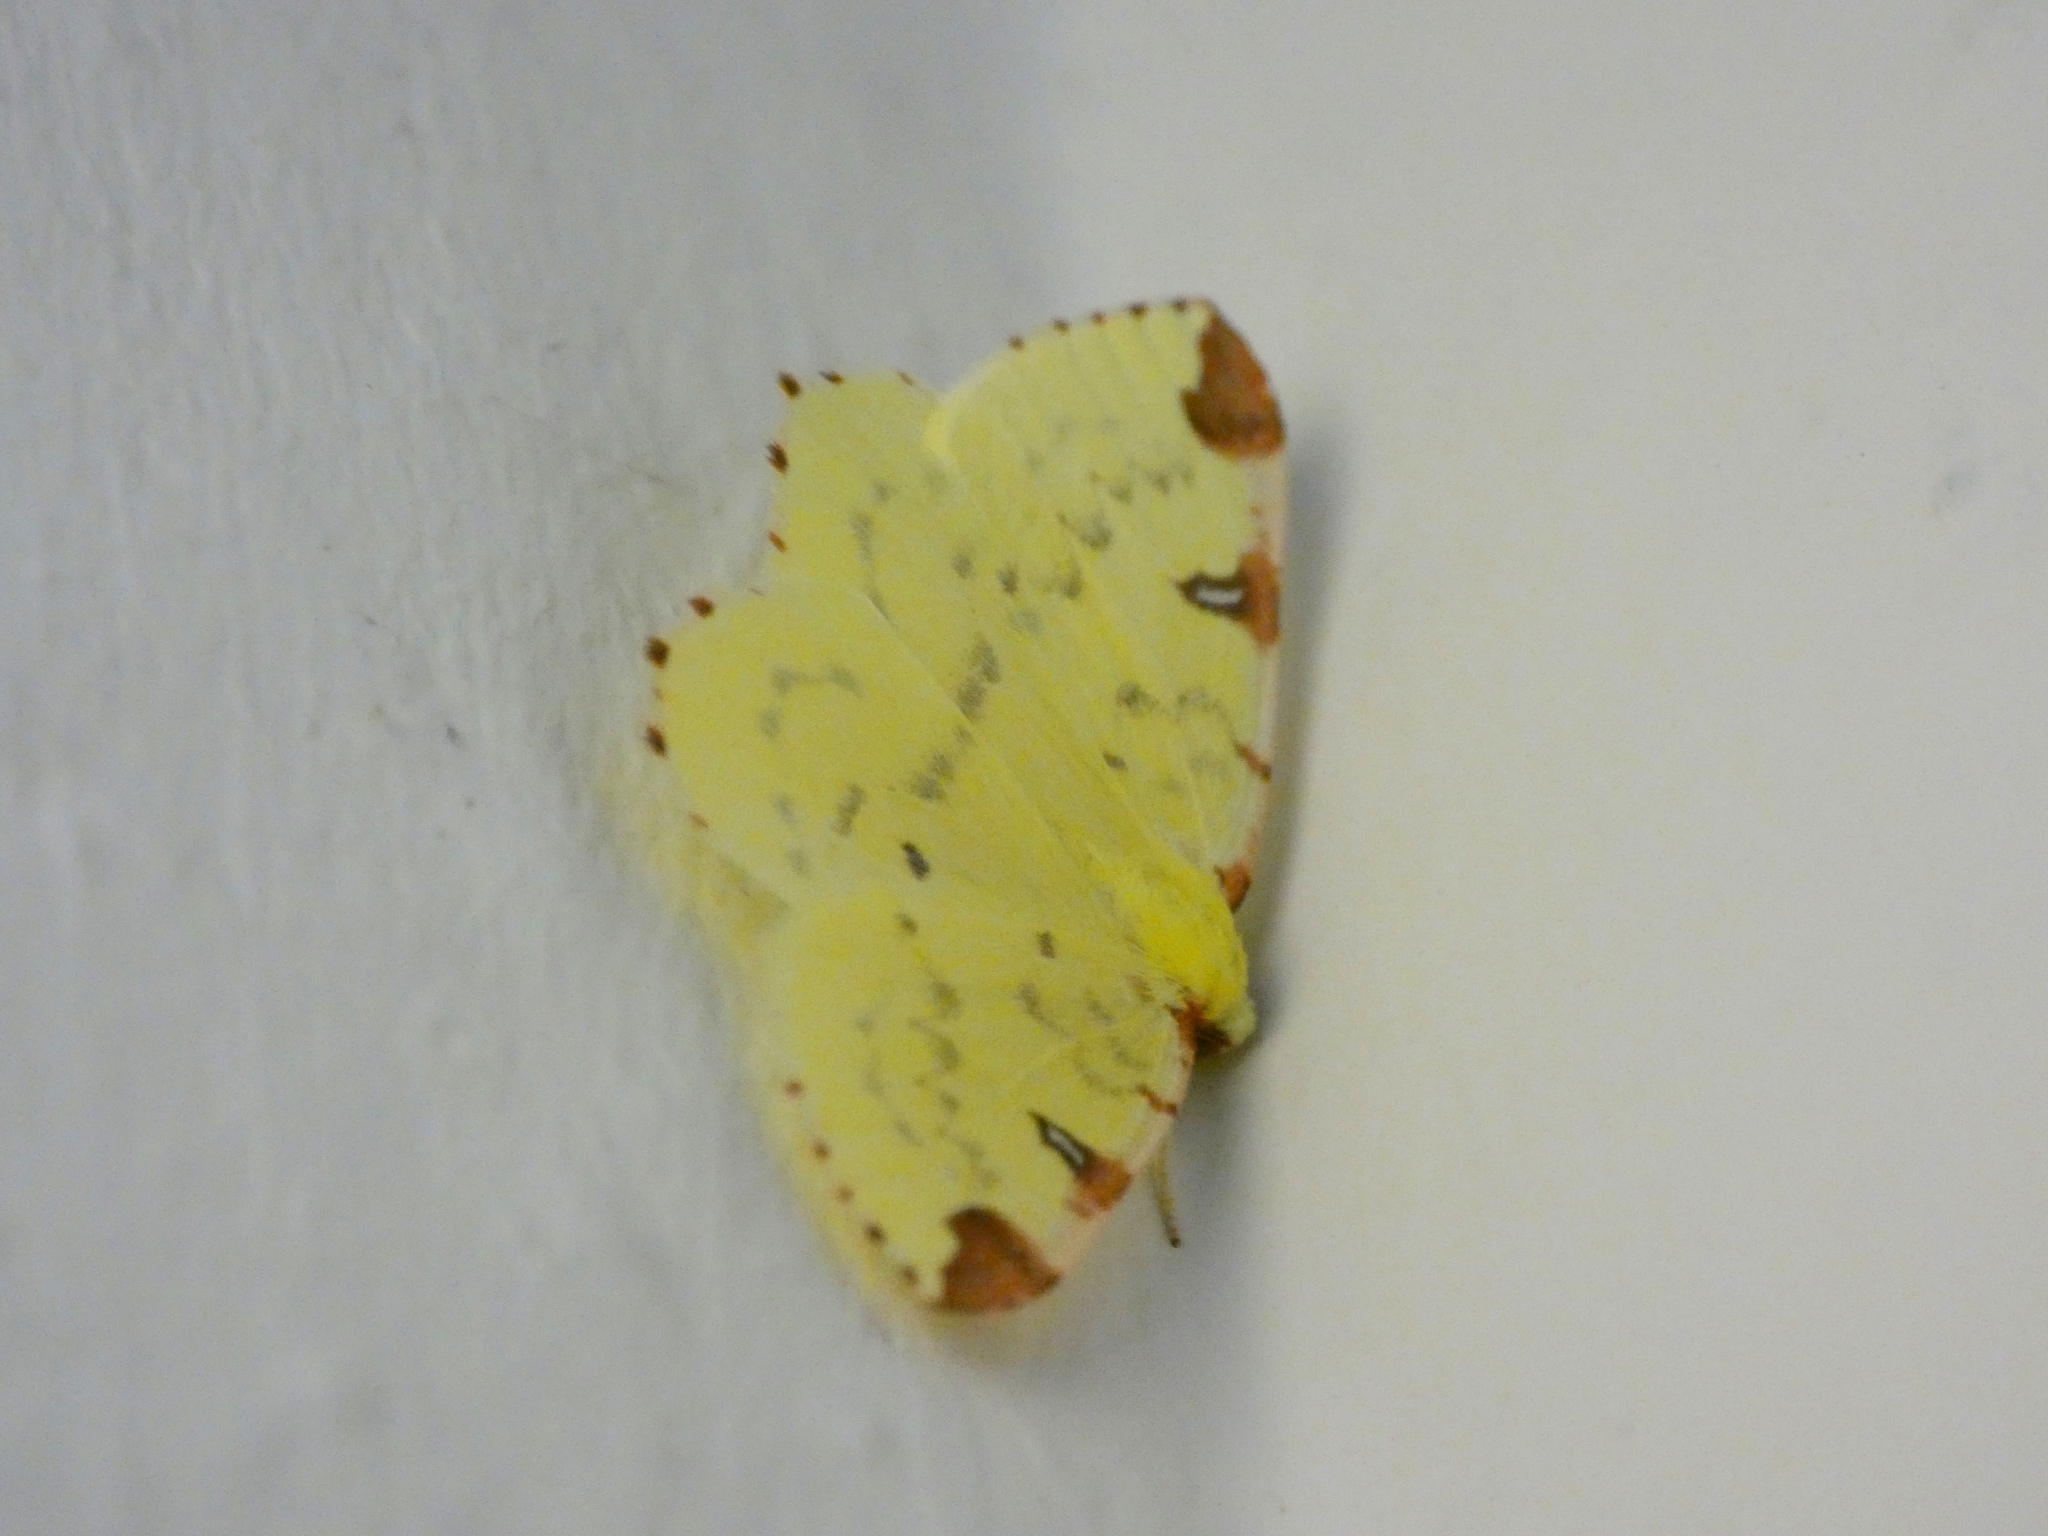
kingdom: Animalia
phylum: Arthropoda
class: Insecta
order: Lepidoptera
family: Geometridae
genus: Opisthograptis
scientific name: Opisthograptis luteolata
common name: Brimstone moth
